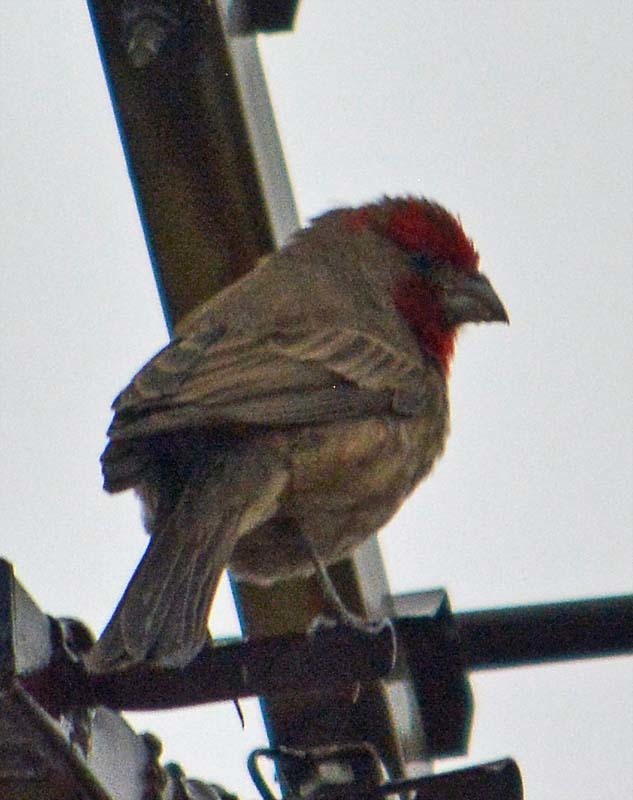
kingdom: Animalia
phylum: Chordata
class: Aves
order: Passeriformes
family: Fringillidae
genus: Haemorhous
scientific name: Haemorhous mexicanus
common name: House finch
